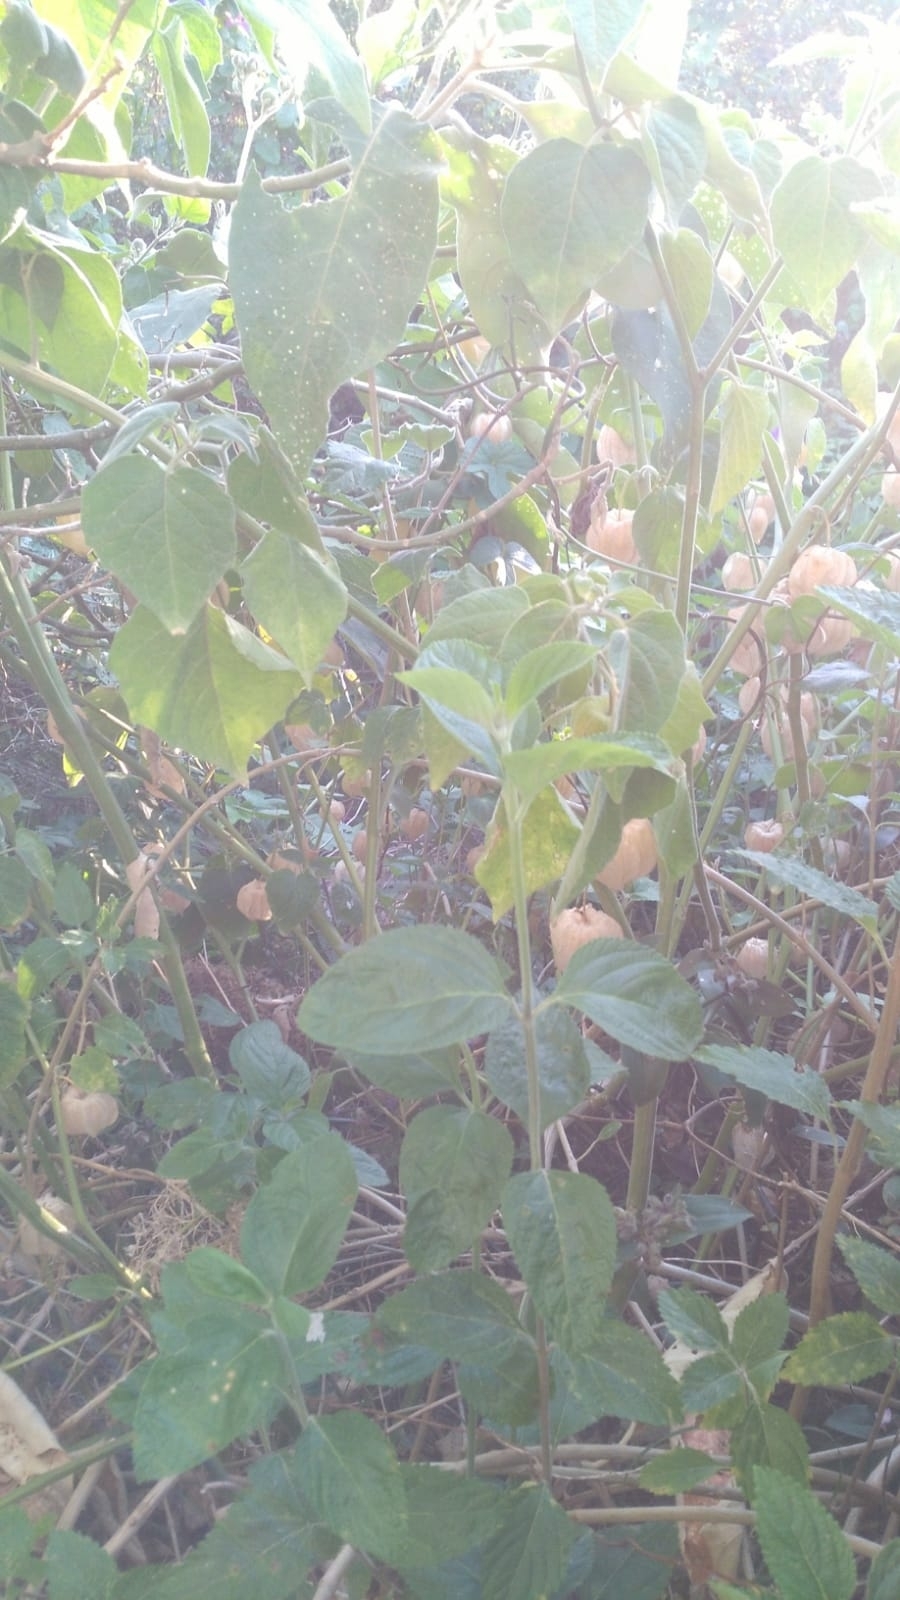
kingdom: Plantae
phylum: Tracheophyta
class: Magnoliopsida
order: Solanales
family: Solanaceae
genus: Physalis
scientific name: Physalis peruviana
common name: Cape-gooseberry
